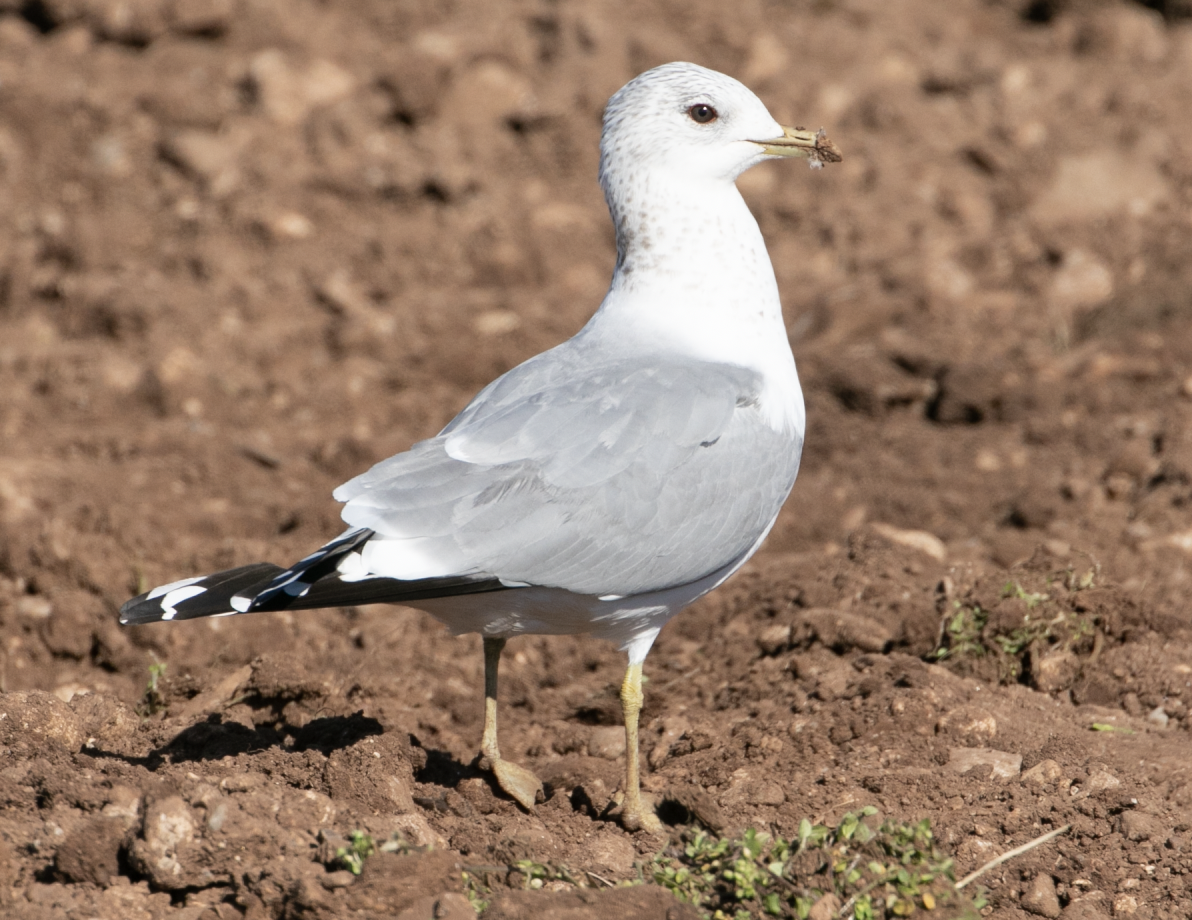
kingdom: Animalia
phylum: Chordata
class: Aves
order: Charadriiformes
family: Laridae
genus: Larus
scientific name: Larus canus
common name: Mew gull
